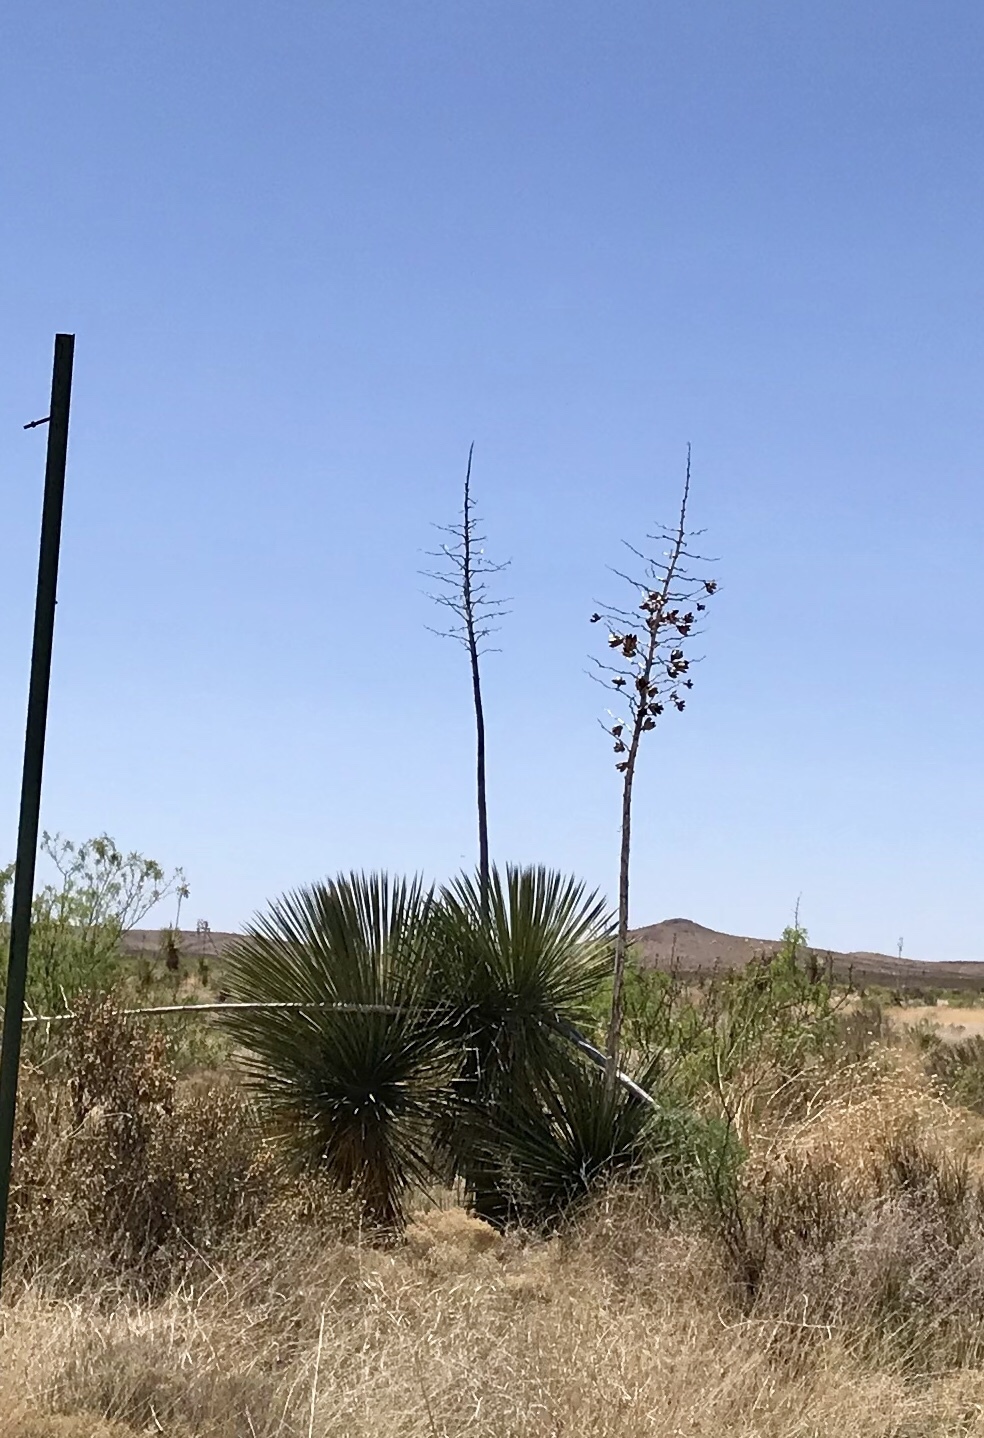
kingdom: Plantae
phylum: Tracheophyta
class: Liliopsida
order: Asparagales
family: Asparagaceae
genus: Yucca
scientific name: Yucca elata
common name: Palmella
